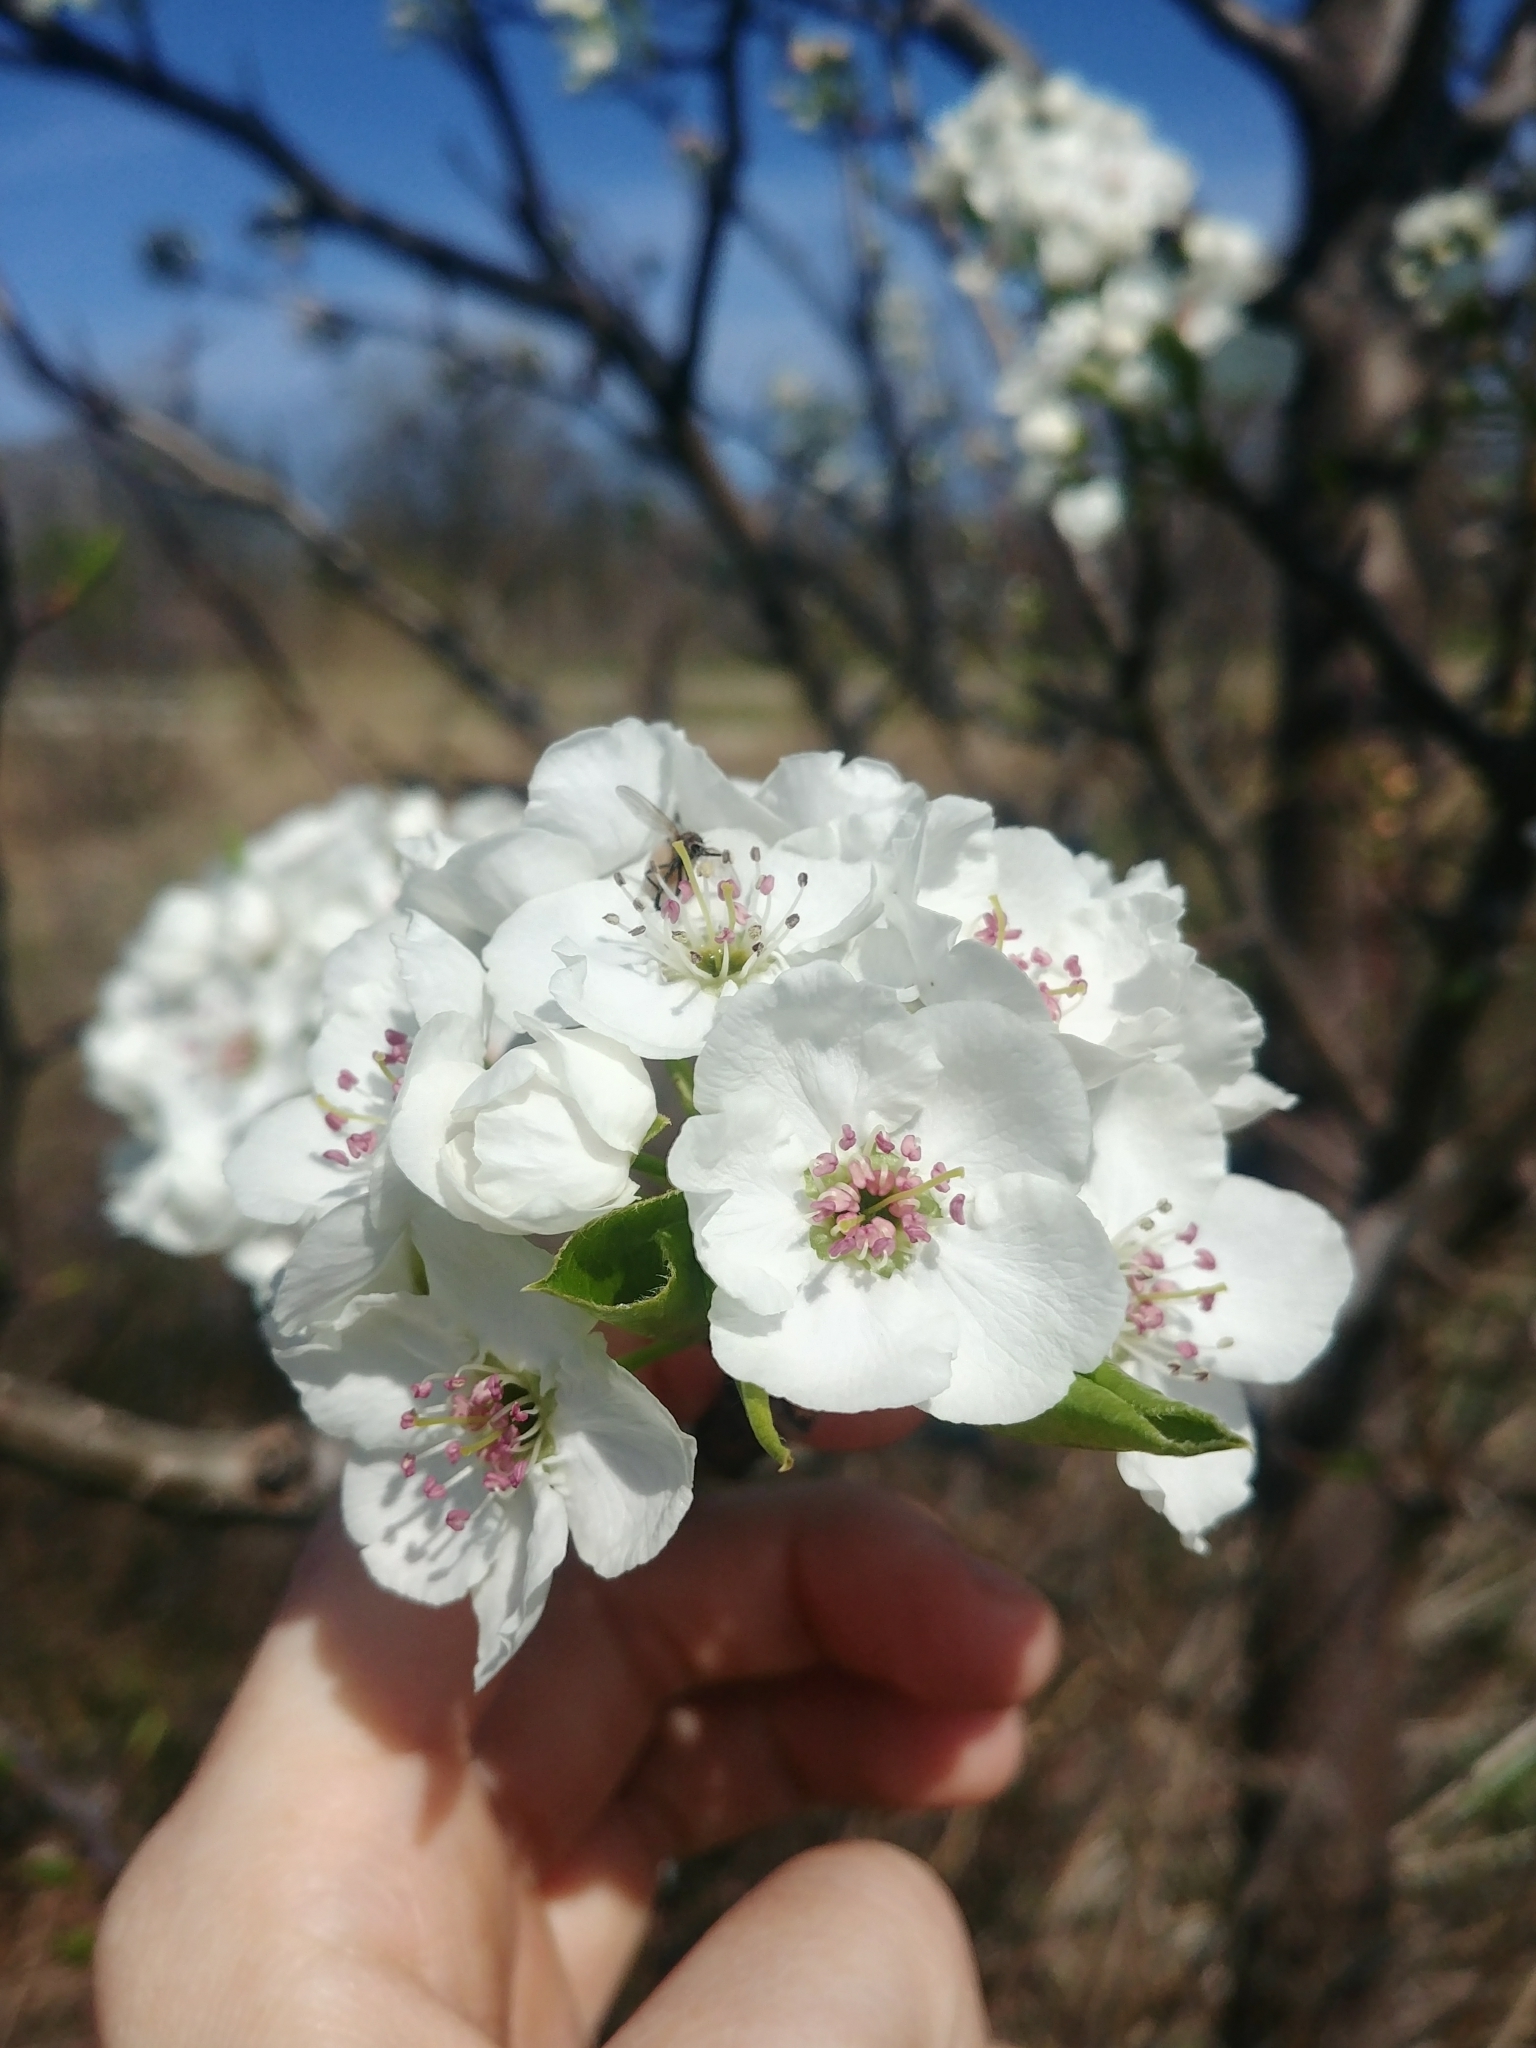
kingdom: Plantae
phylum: Tracheophyta
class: Magnoliopsida
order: Rosales
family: Rosaceae
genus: Pyrus
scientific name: Pyrus calleryana
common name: Callery pear
